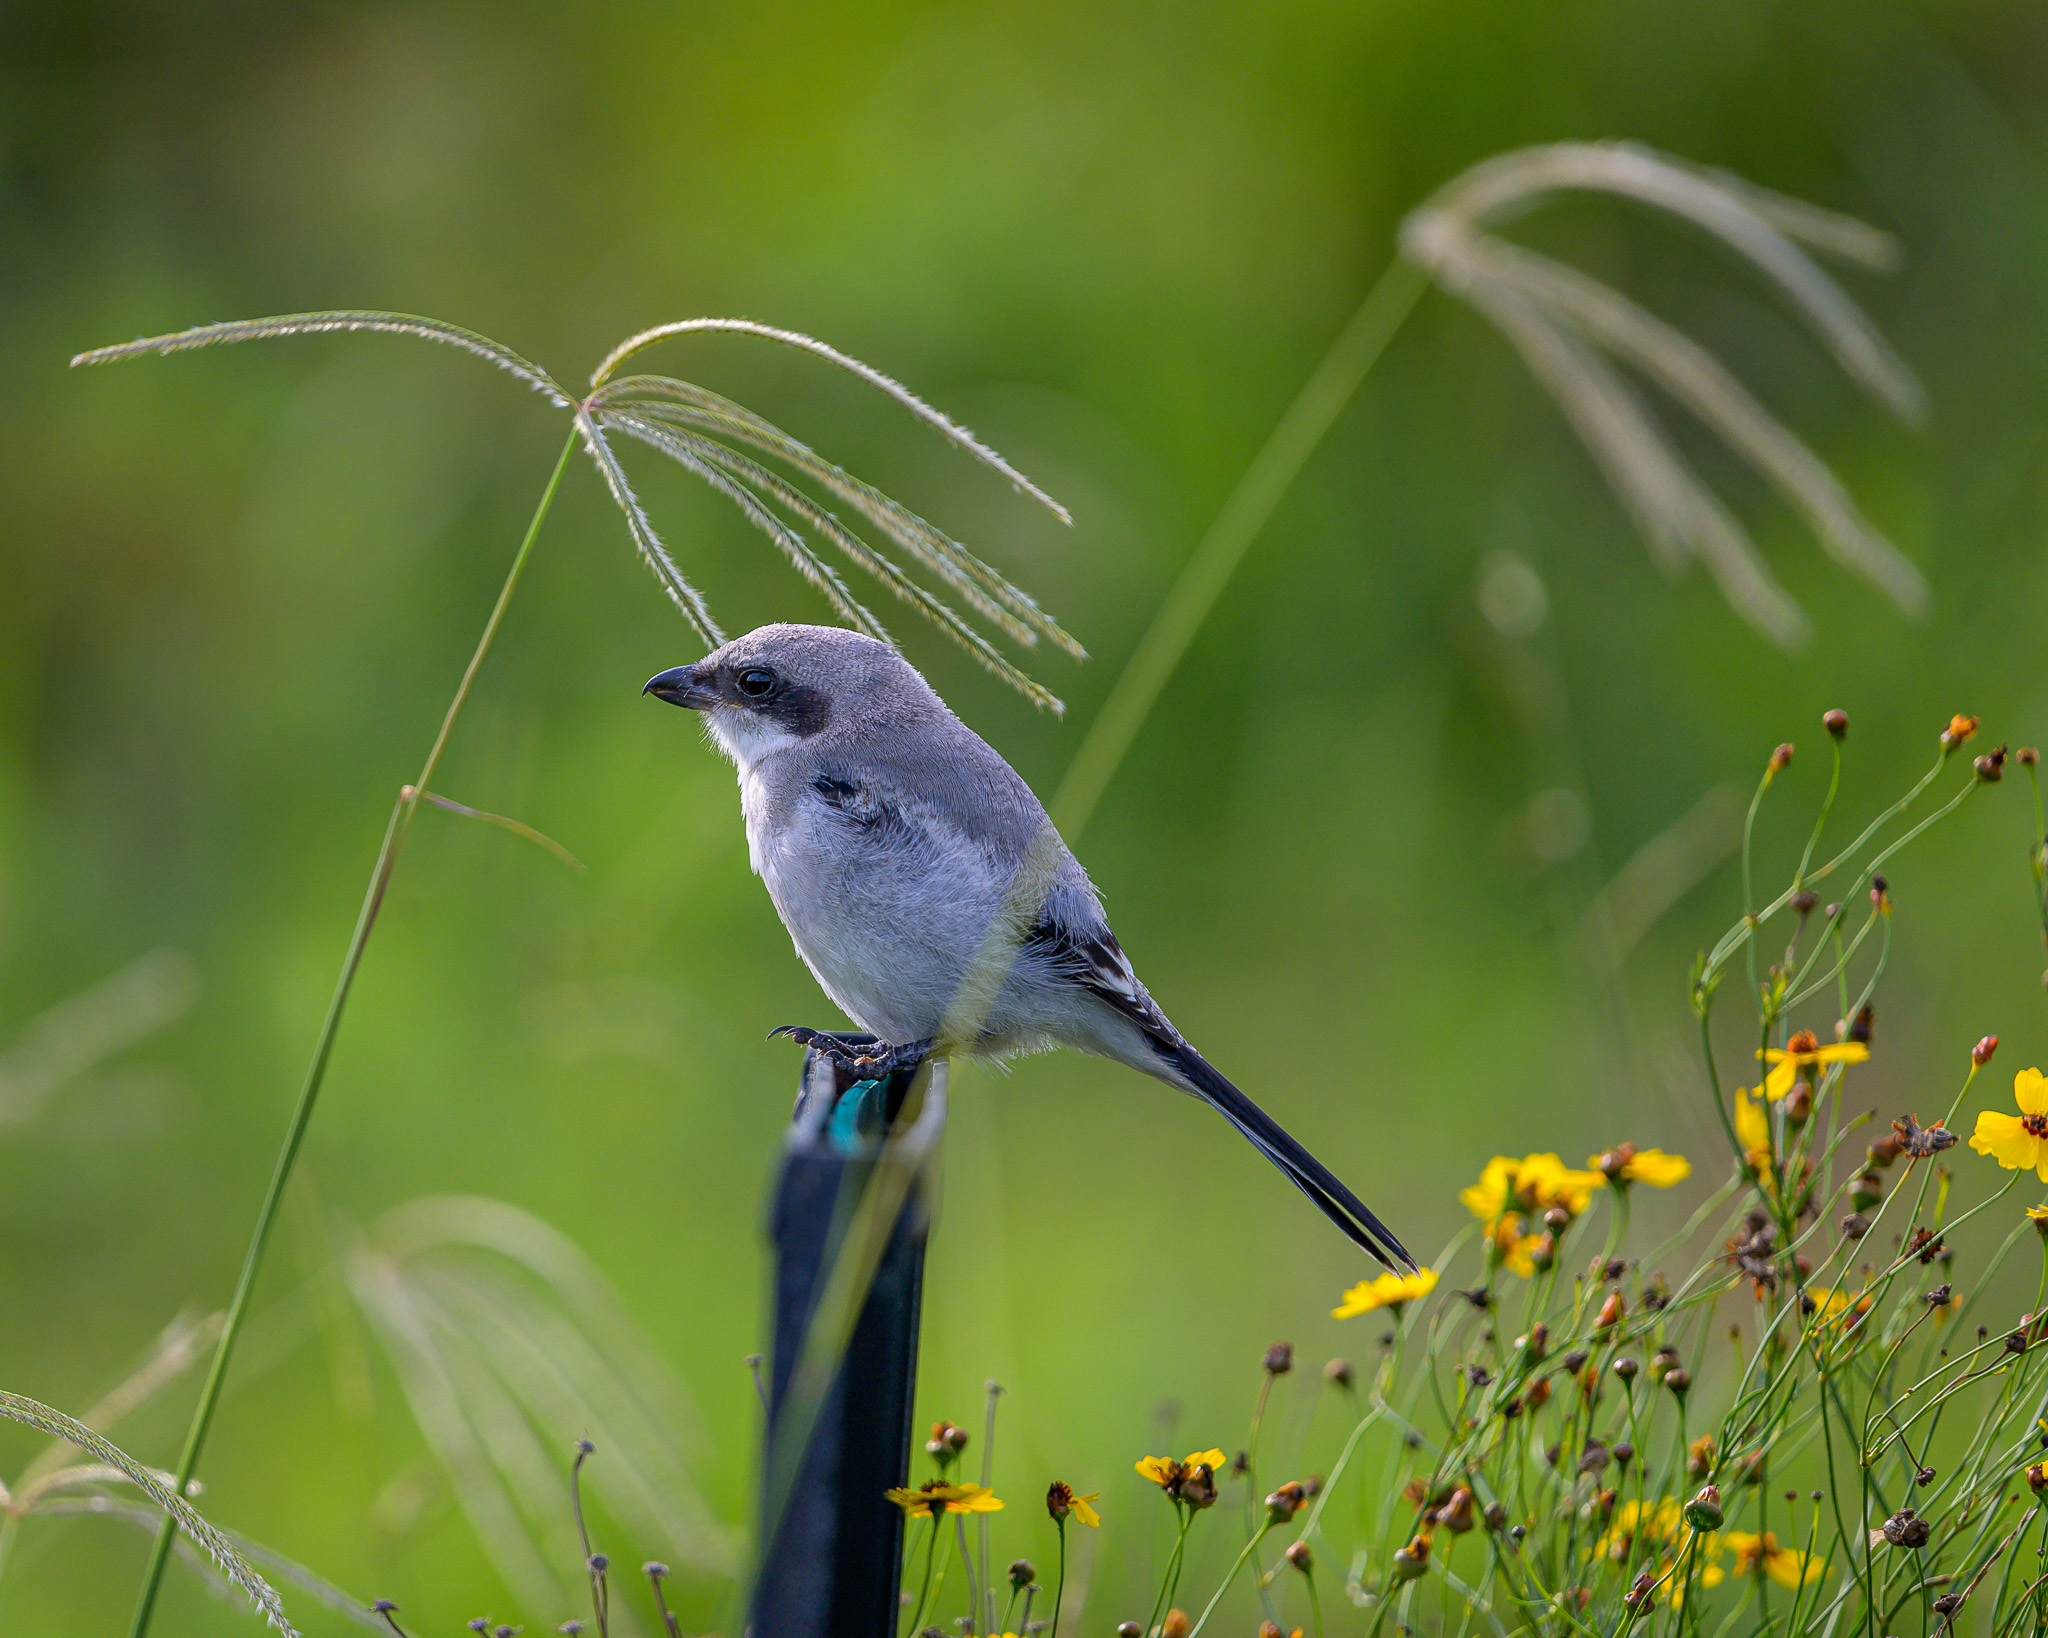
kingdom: Animalia
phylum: Chordata
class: Aves
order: Passeriformes
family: Laniidae
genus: Lanius
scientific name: Lanius ludovicianus
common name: Loggerhead shrike
